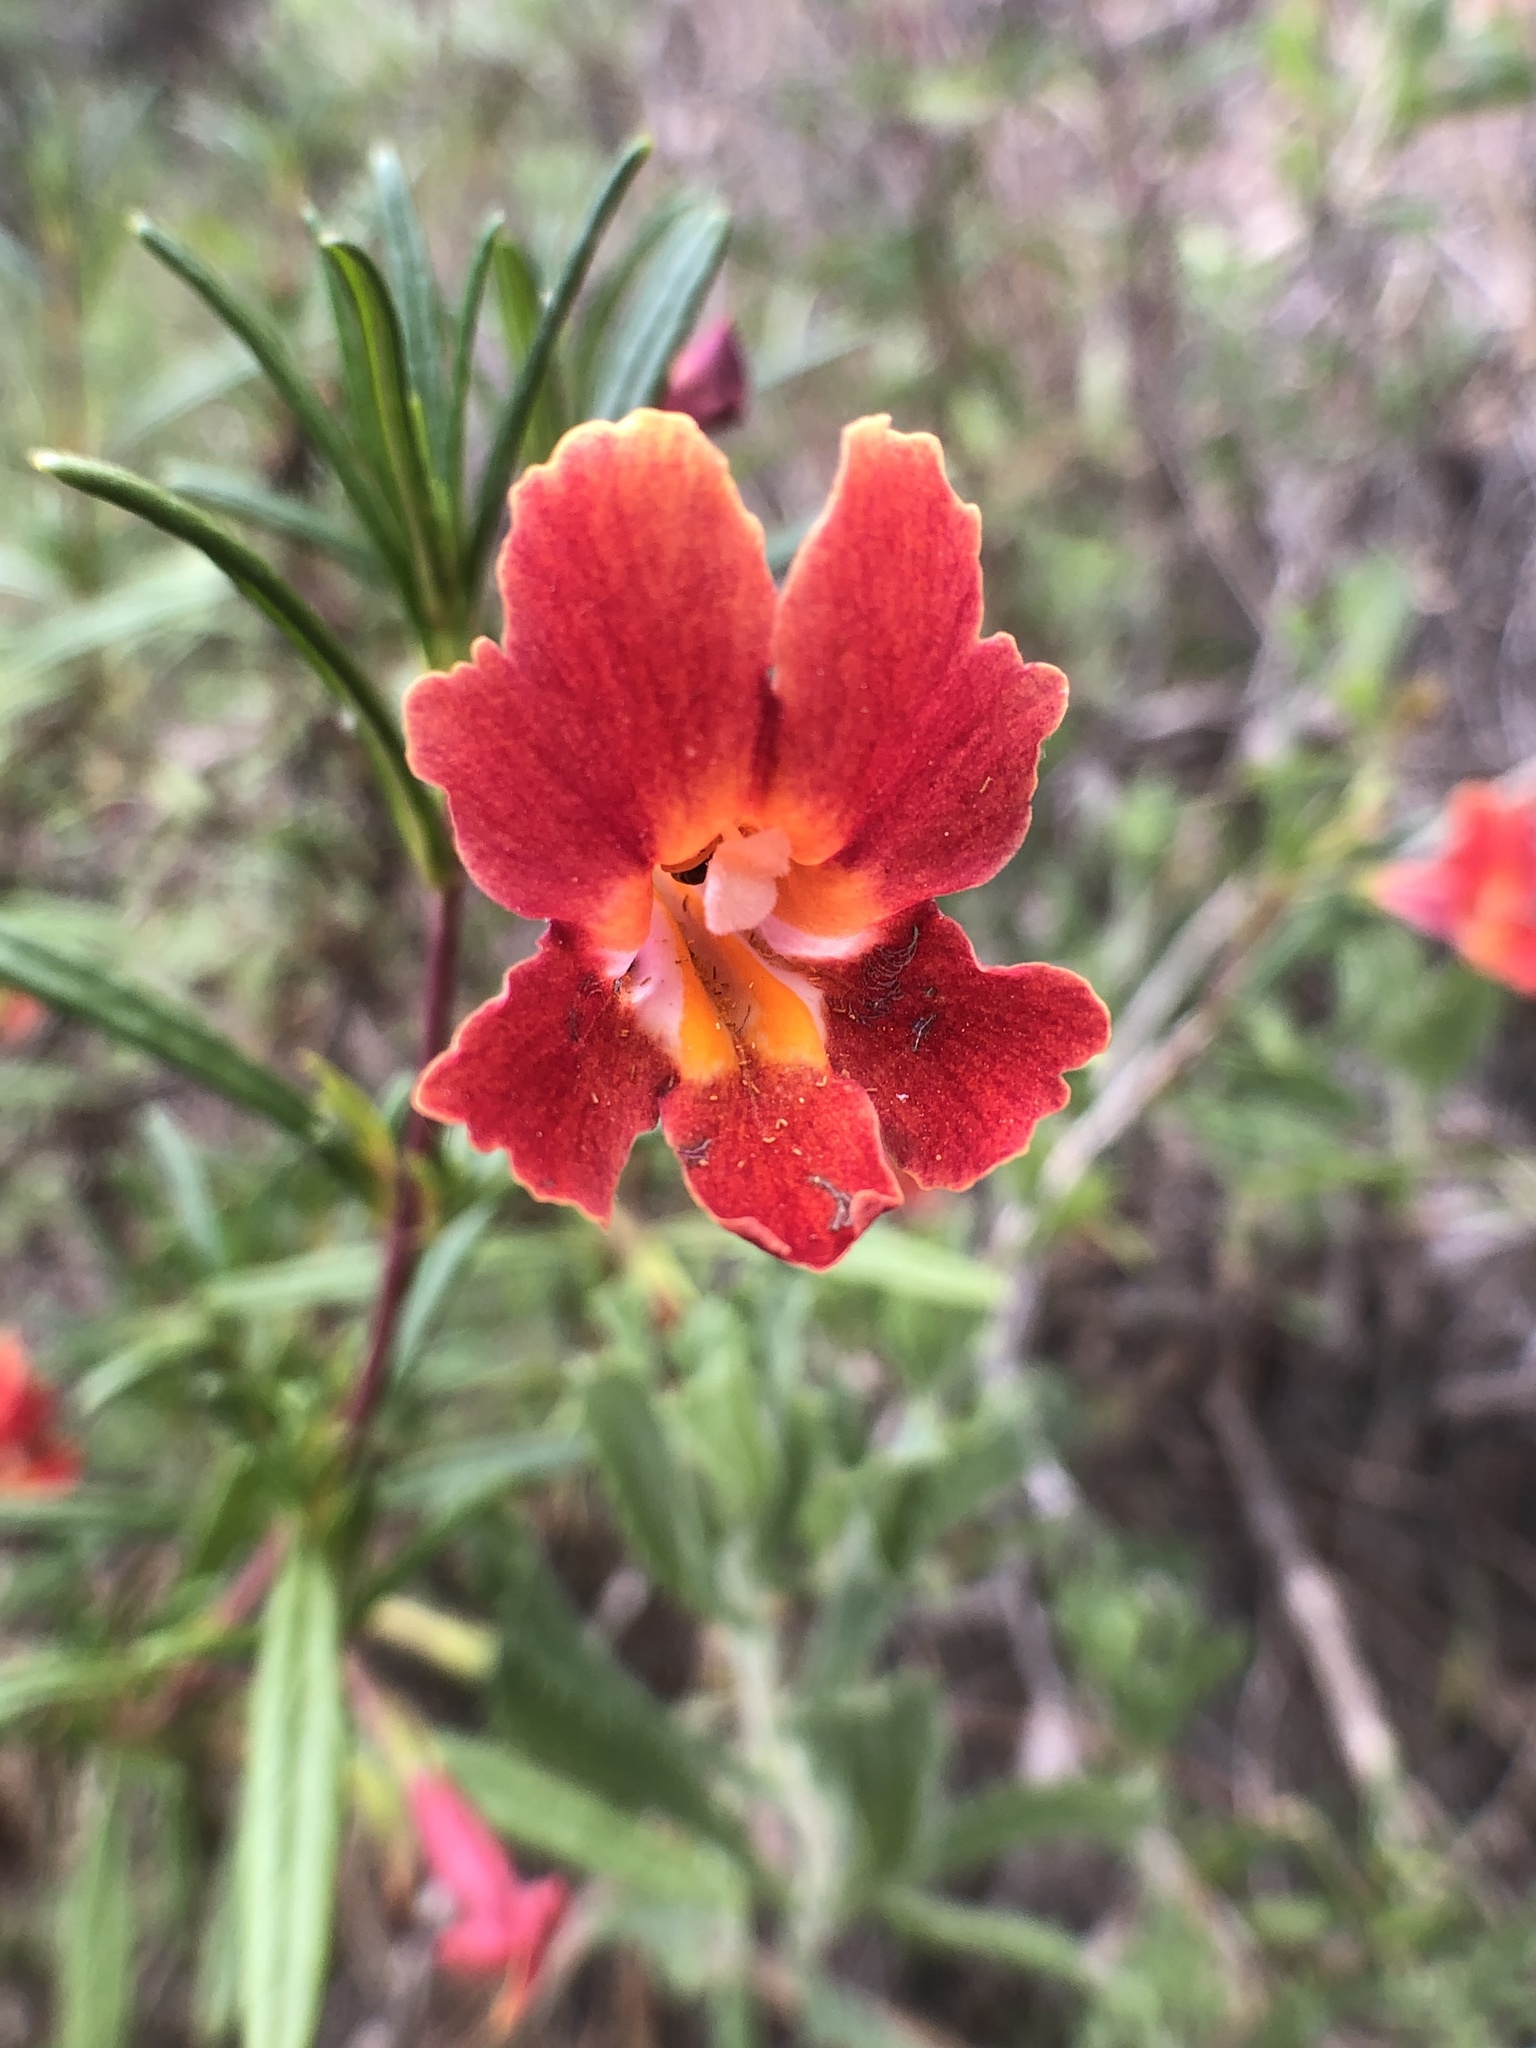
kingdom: Plantae
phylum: Tracheophyta
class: Magnoliopsida
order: Lamiales
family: Phrymaceae
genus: Diplacus
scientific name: Diplacus puniceus
